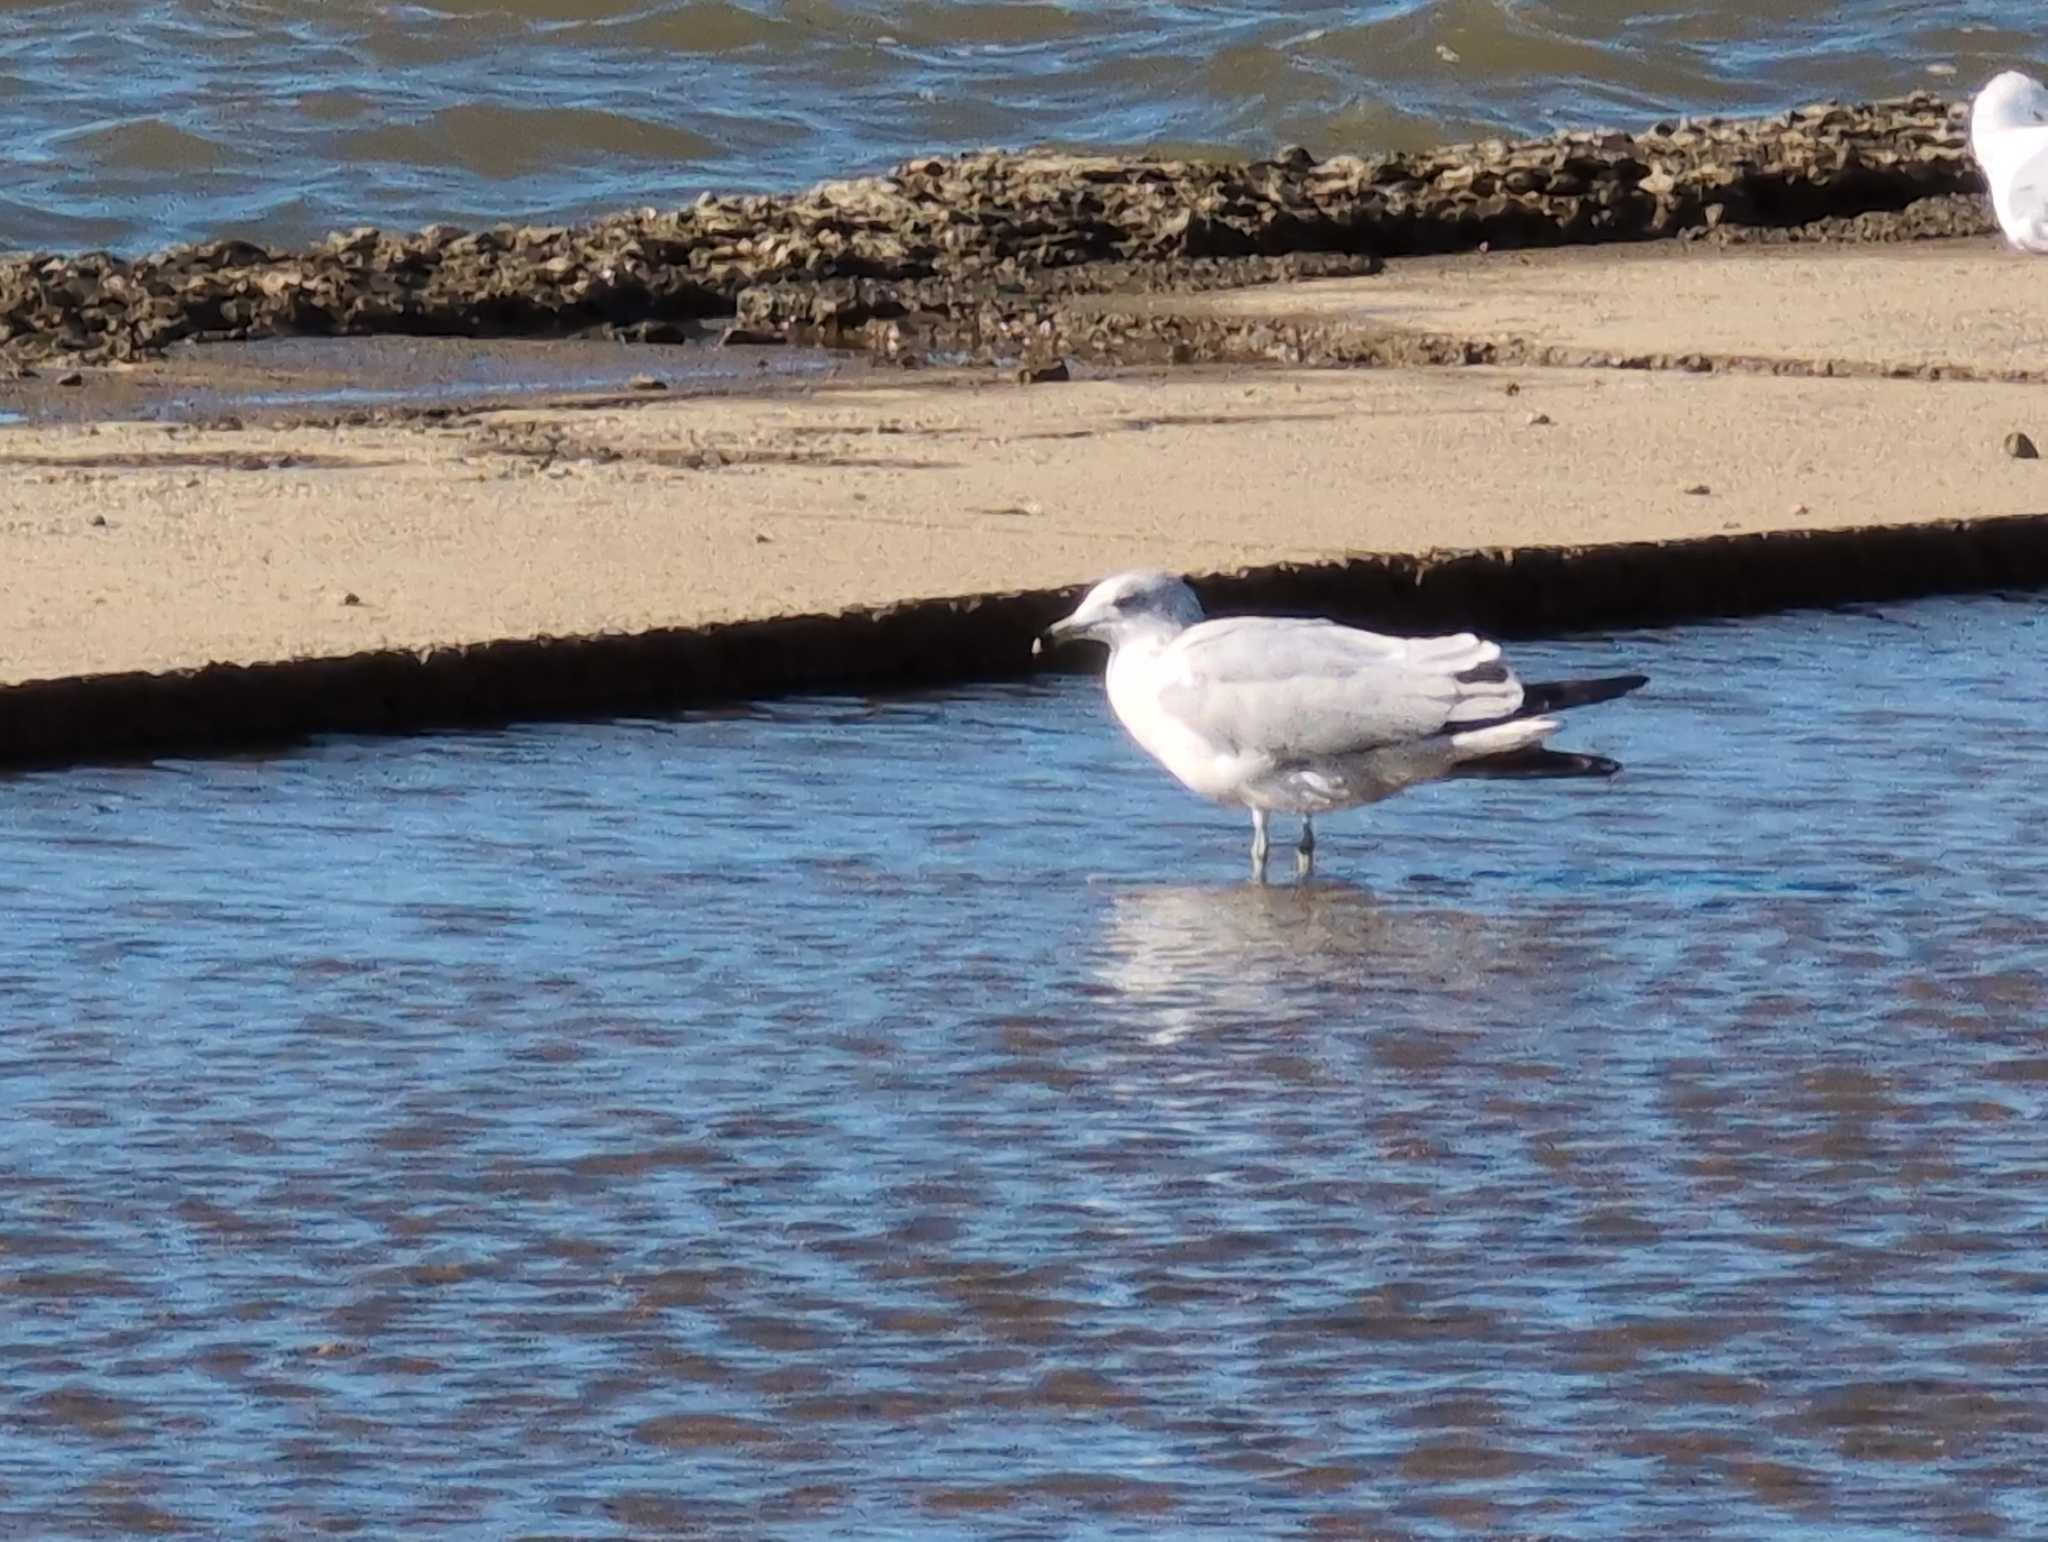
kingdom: Animalia
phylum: Chordata
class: Aves
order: Charadriiformes
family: Laridae
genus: Larus
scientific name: Larus delawarensis
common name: Ring-billed gull
